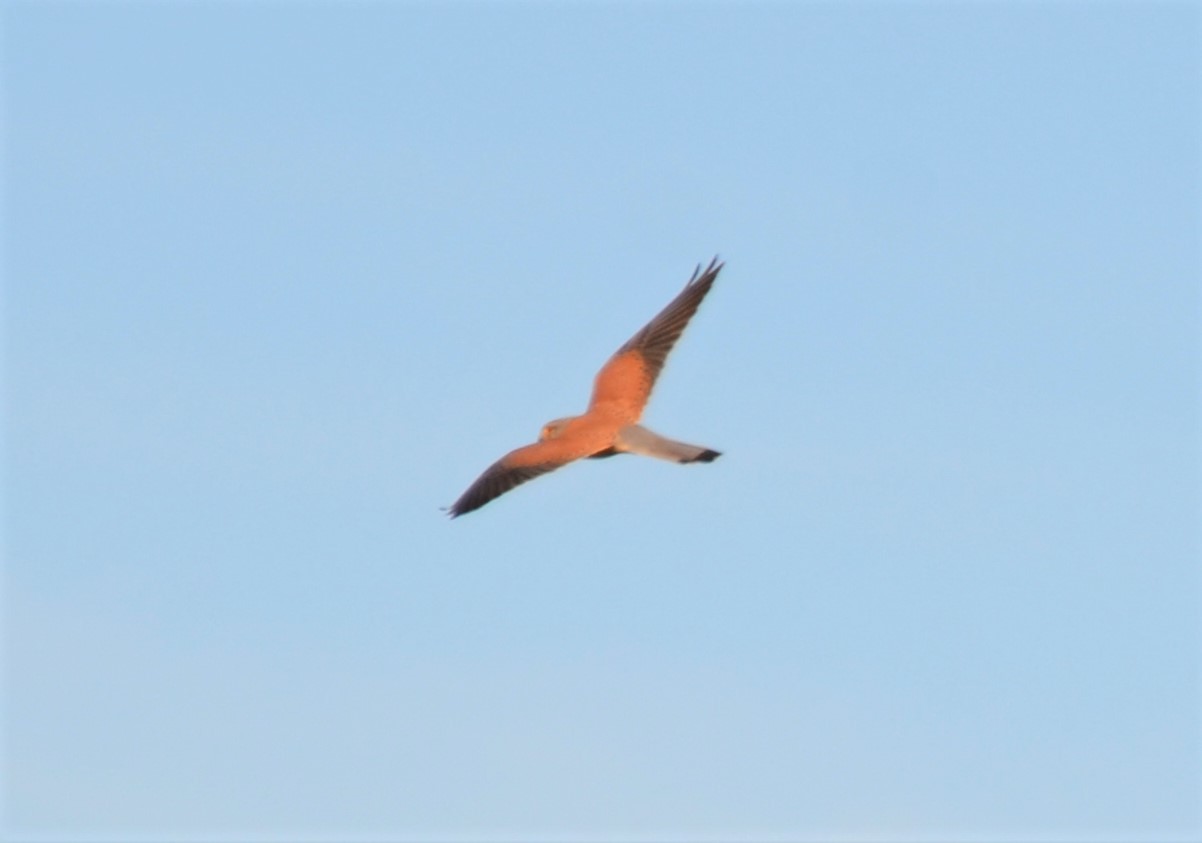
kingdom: Animalia
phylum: Chordata
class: Aves
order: Falconiformes
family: Falconidae
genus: Falco
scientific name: Falco tinnunculus
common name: Common kestrel
